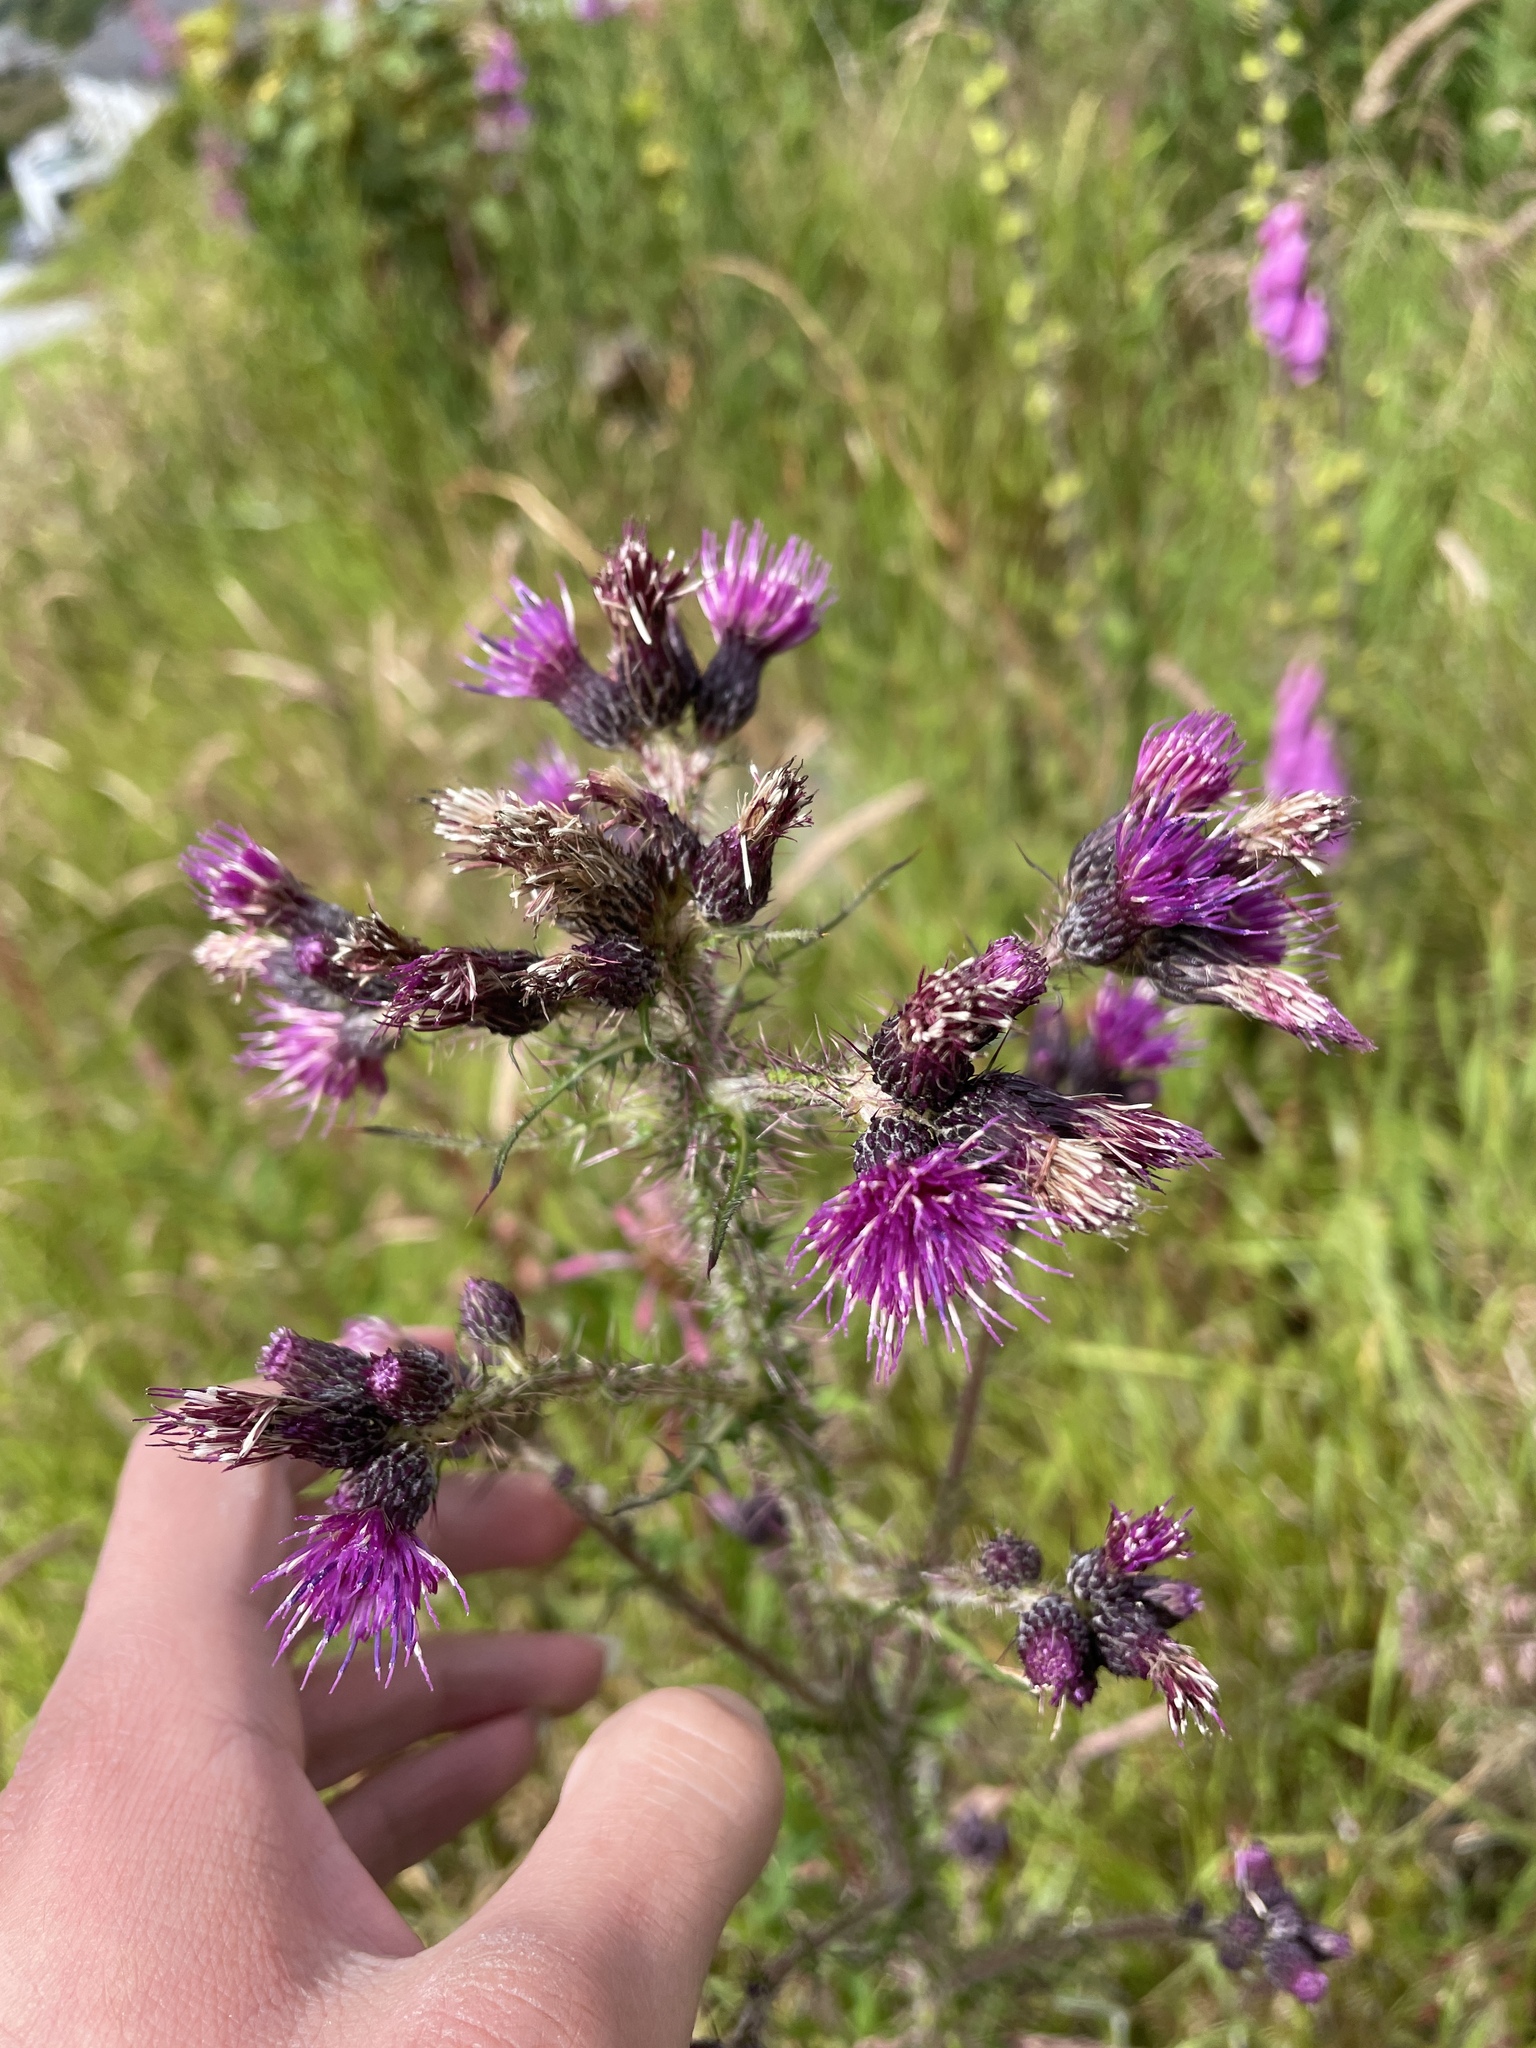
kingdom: Plantae
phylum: Tracheophyta
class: Magnoliopsida
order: Asterales
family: Asteraceae
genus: Cirsium
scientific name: Cirsium palustre
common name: Marsh thistle
